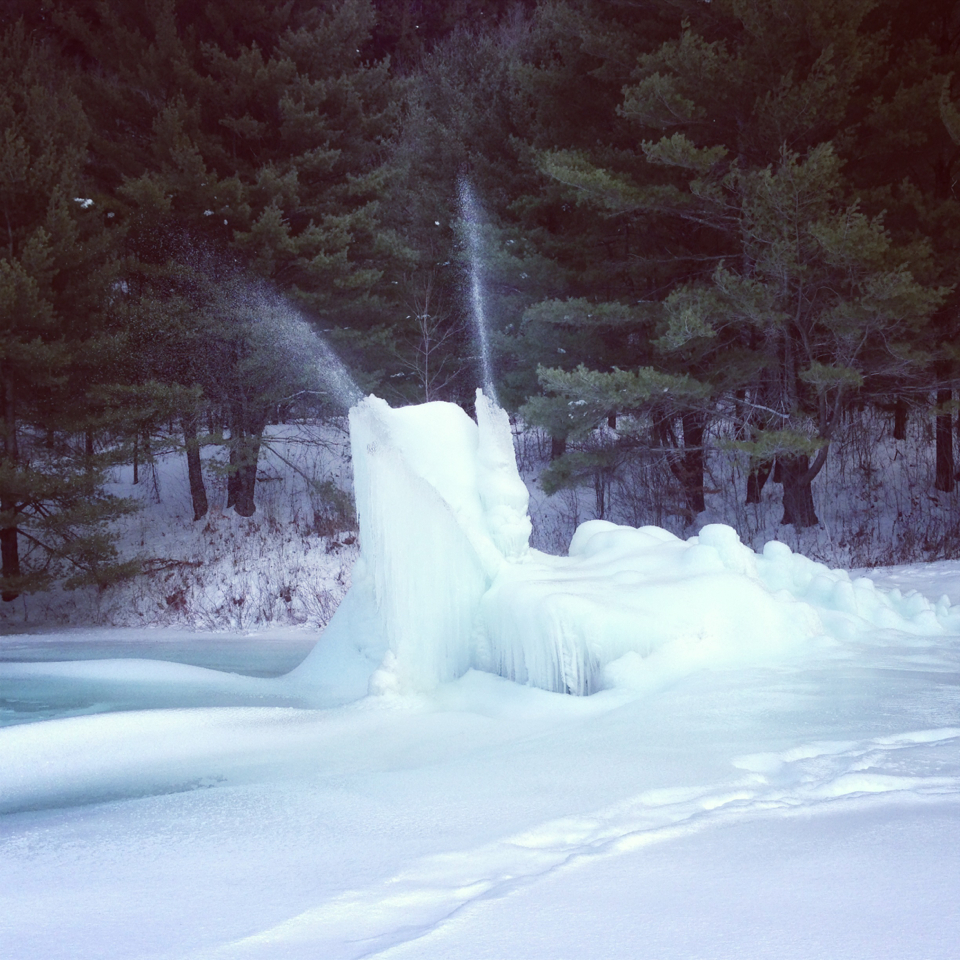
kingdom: Plantae
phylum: Tracheophyta
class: Pinopsida
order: Pinales
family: Pinaceae
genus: Pinus
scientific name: Pinus strobus
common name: Weymouth pine
